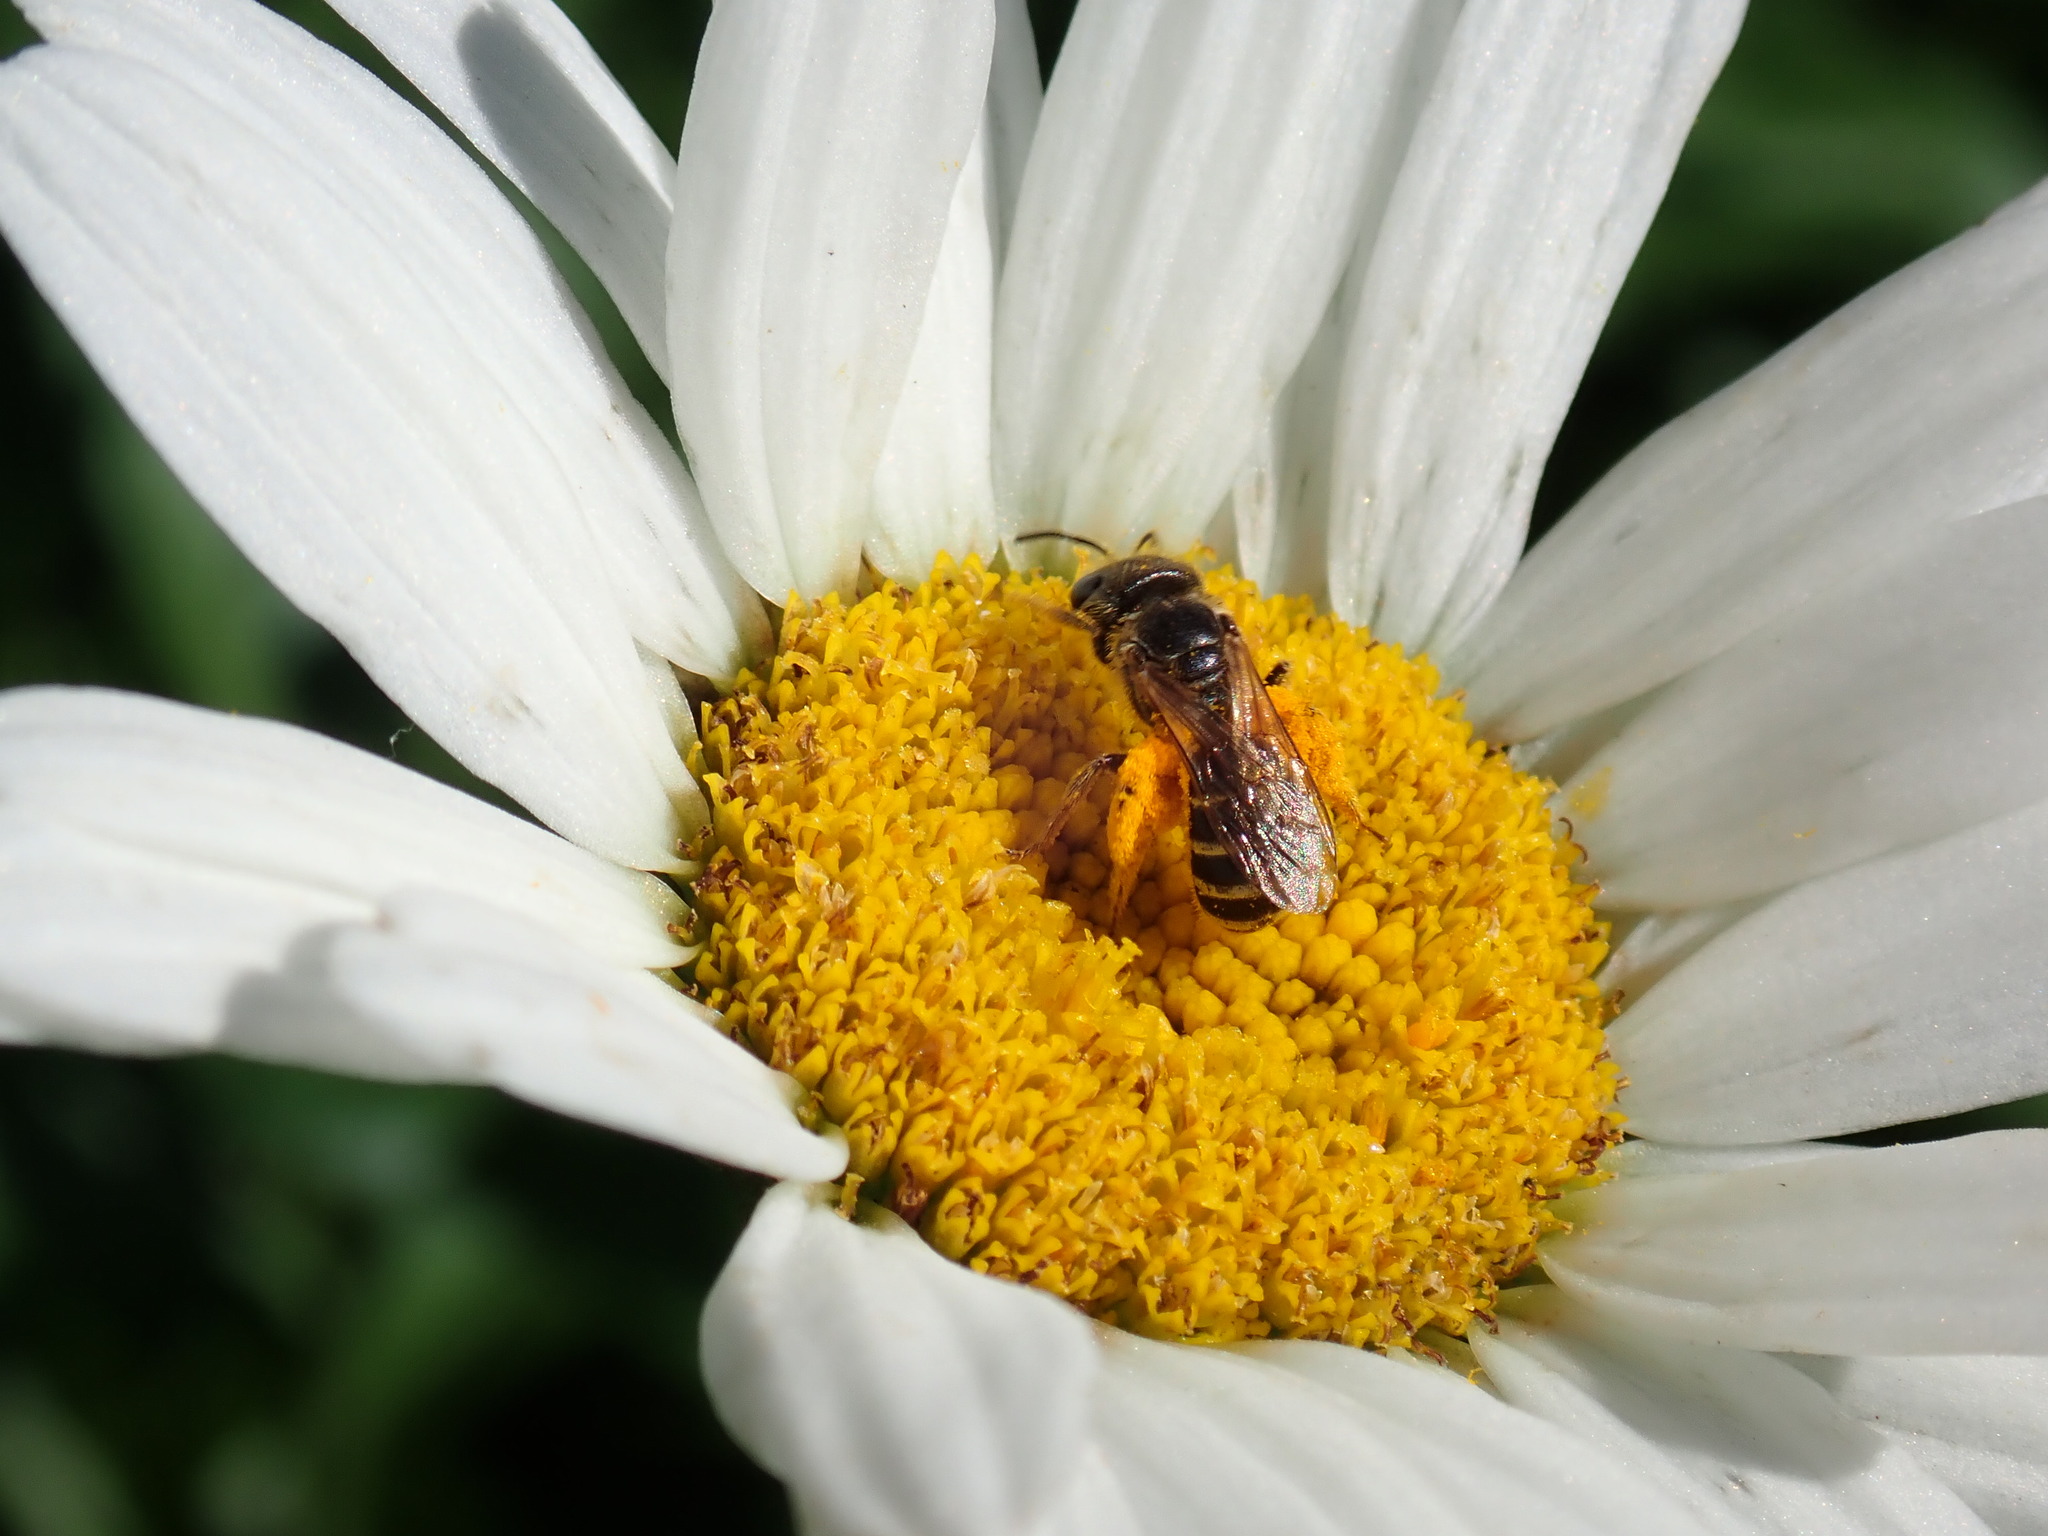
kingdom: Animalia
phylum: Arthropoda
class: Insecta
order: Hymenoptera
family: Halictidae
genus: Halictus
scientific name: Halictus ligatus
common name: Ligated furrow bee
